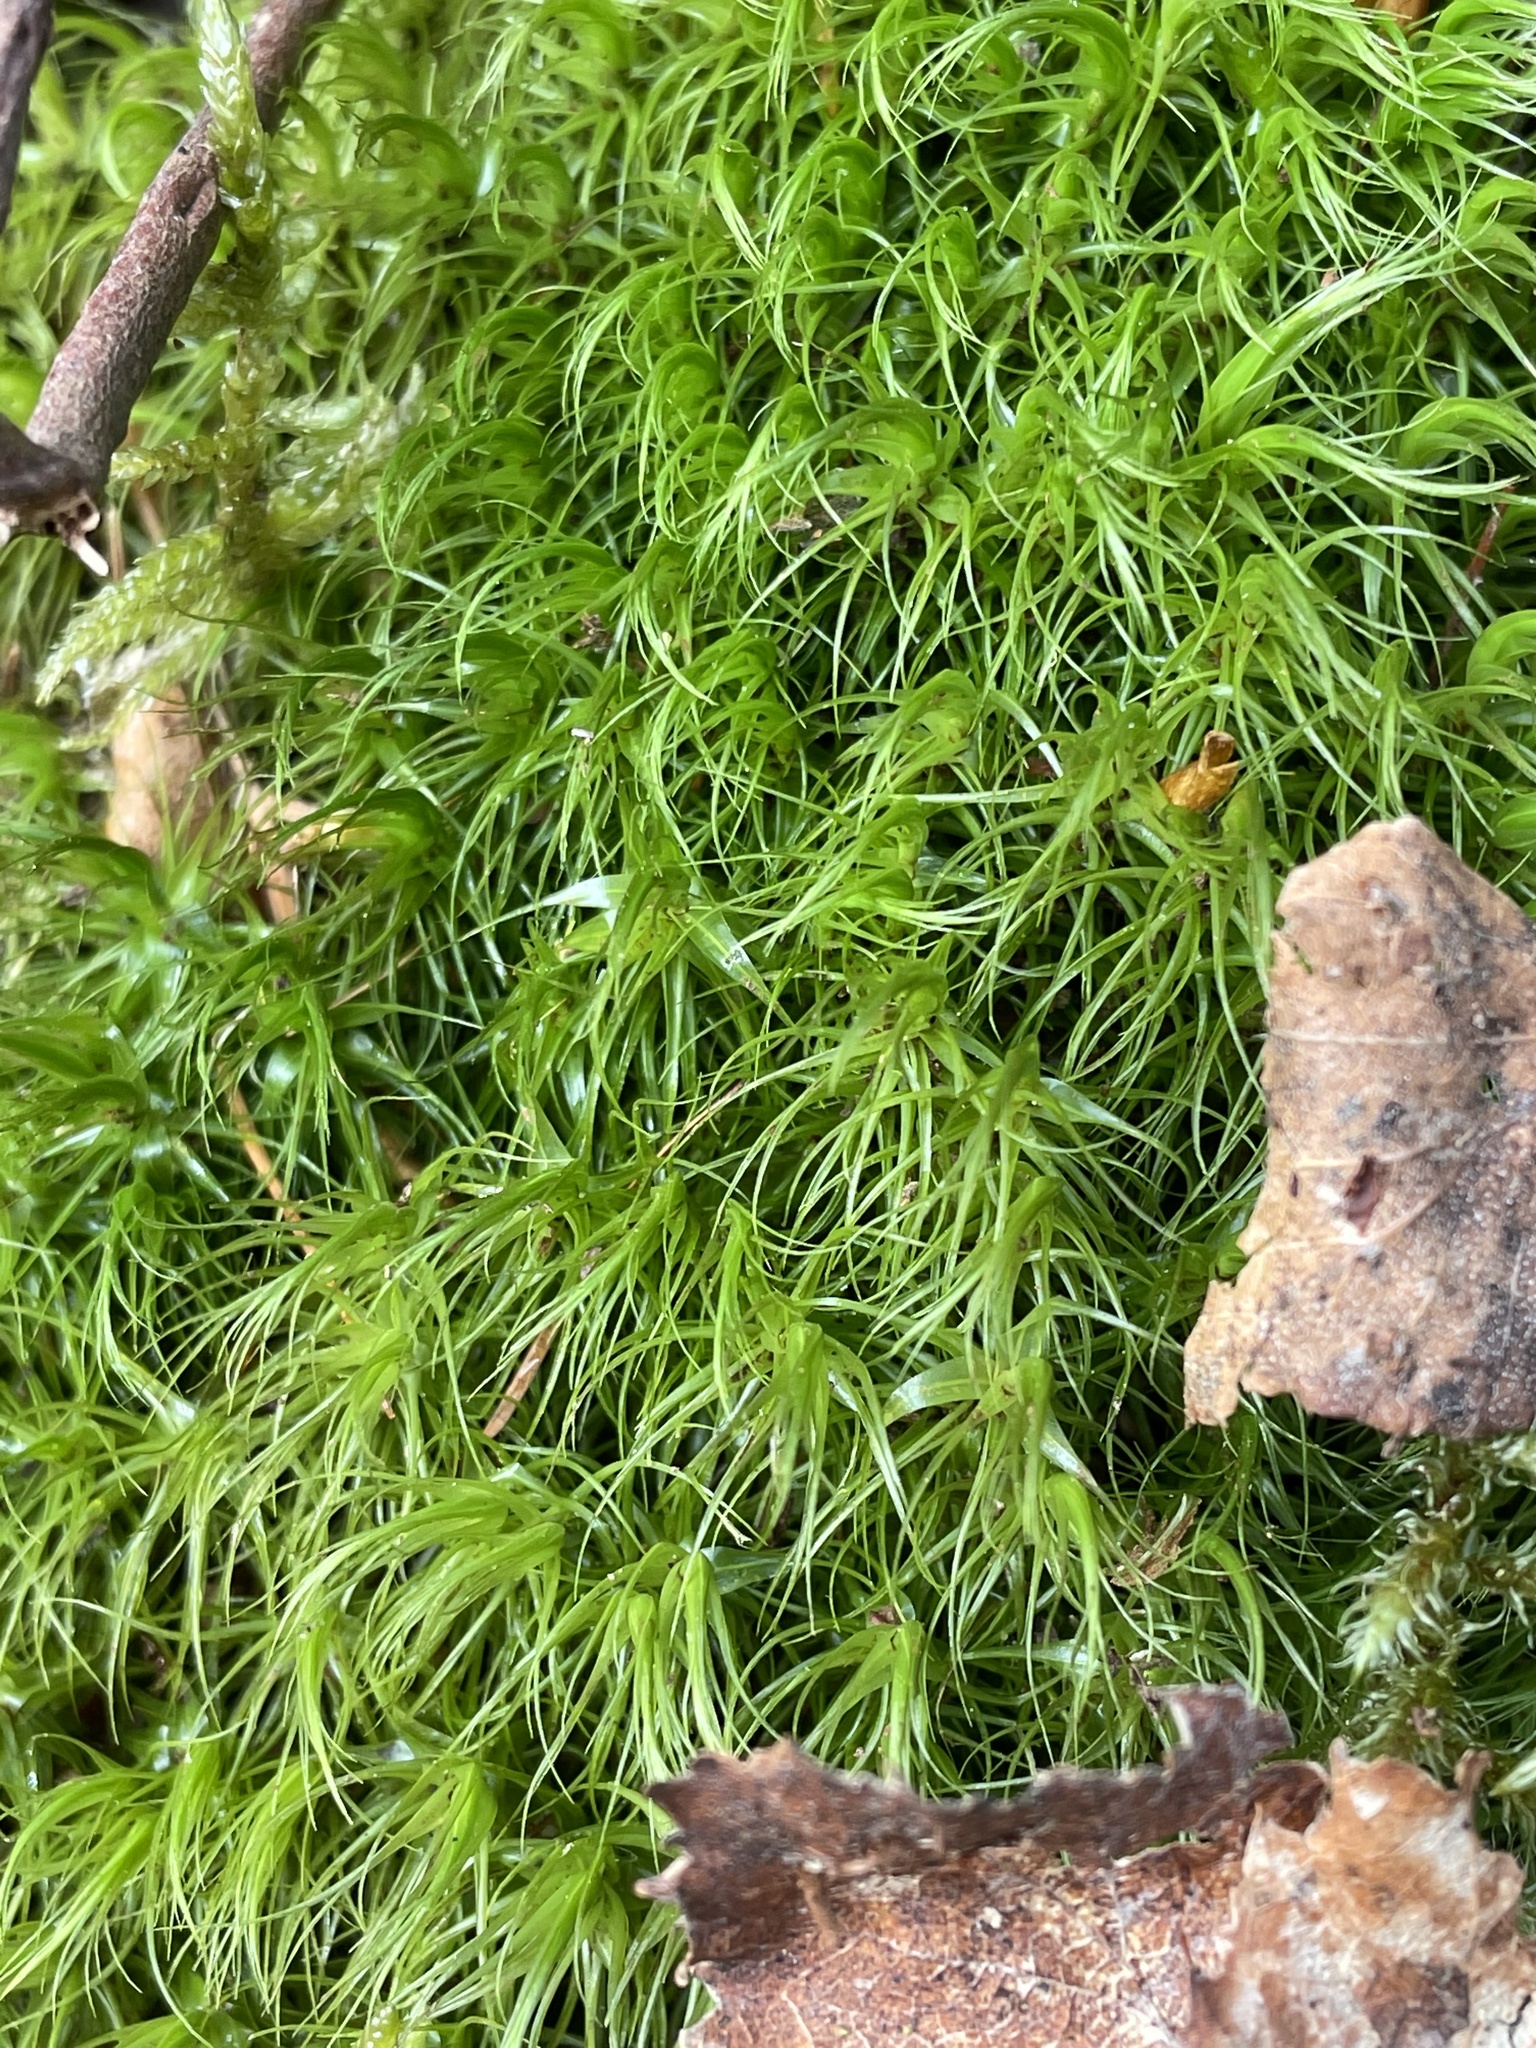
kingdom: Plantae
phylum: Bryophyta
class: Bryopsida
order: Dicranales
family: Dicranaceae
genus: Dicranum
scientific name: Dicranum scoparium
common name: Broom fork-moss
